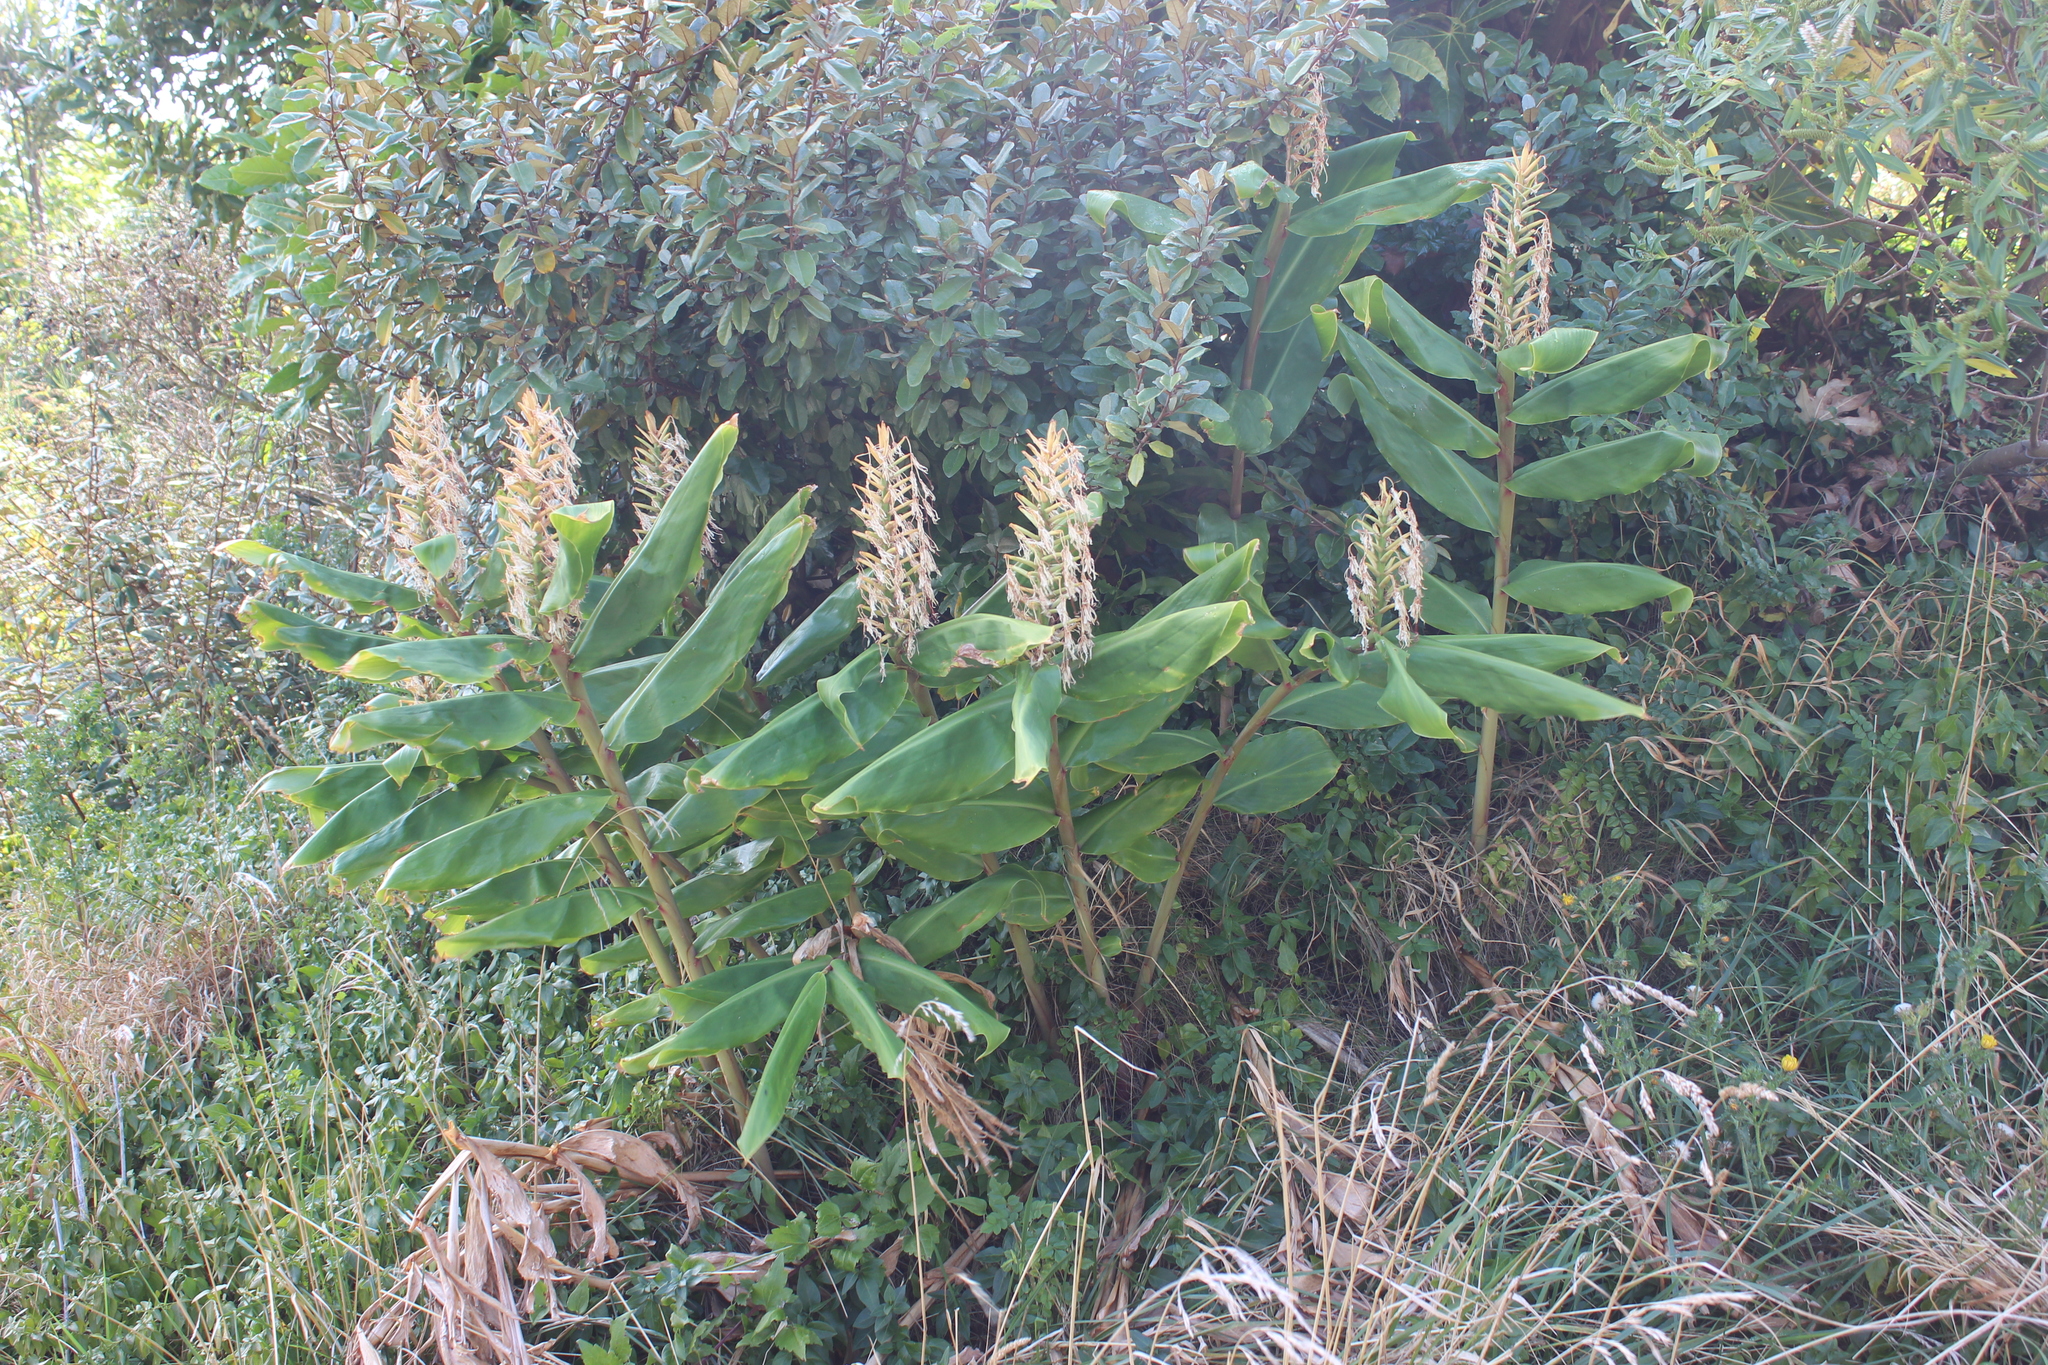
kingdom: Plantae
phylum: Tracheophyta
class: Liliopsida
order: Zingiberales
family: Zingiberaceae
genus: Hedychium
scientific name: Hedychium gardnerianum
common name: Himalayan ginger
